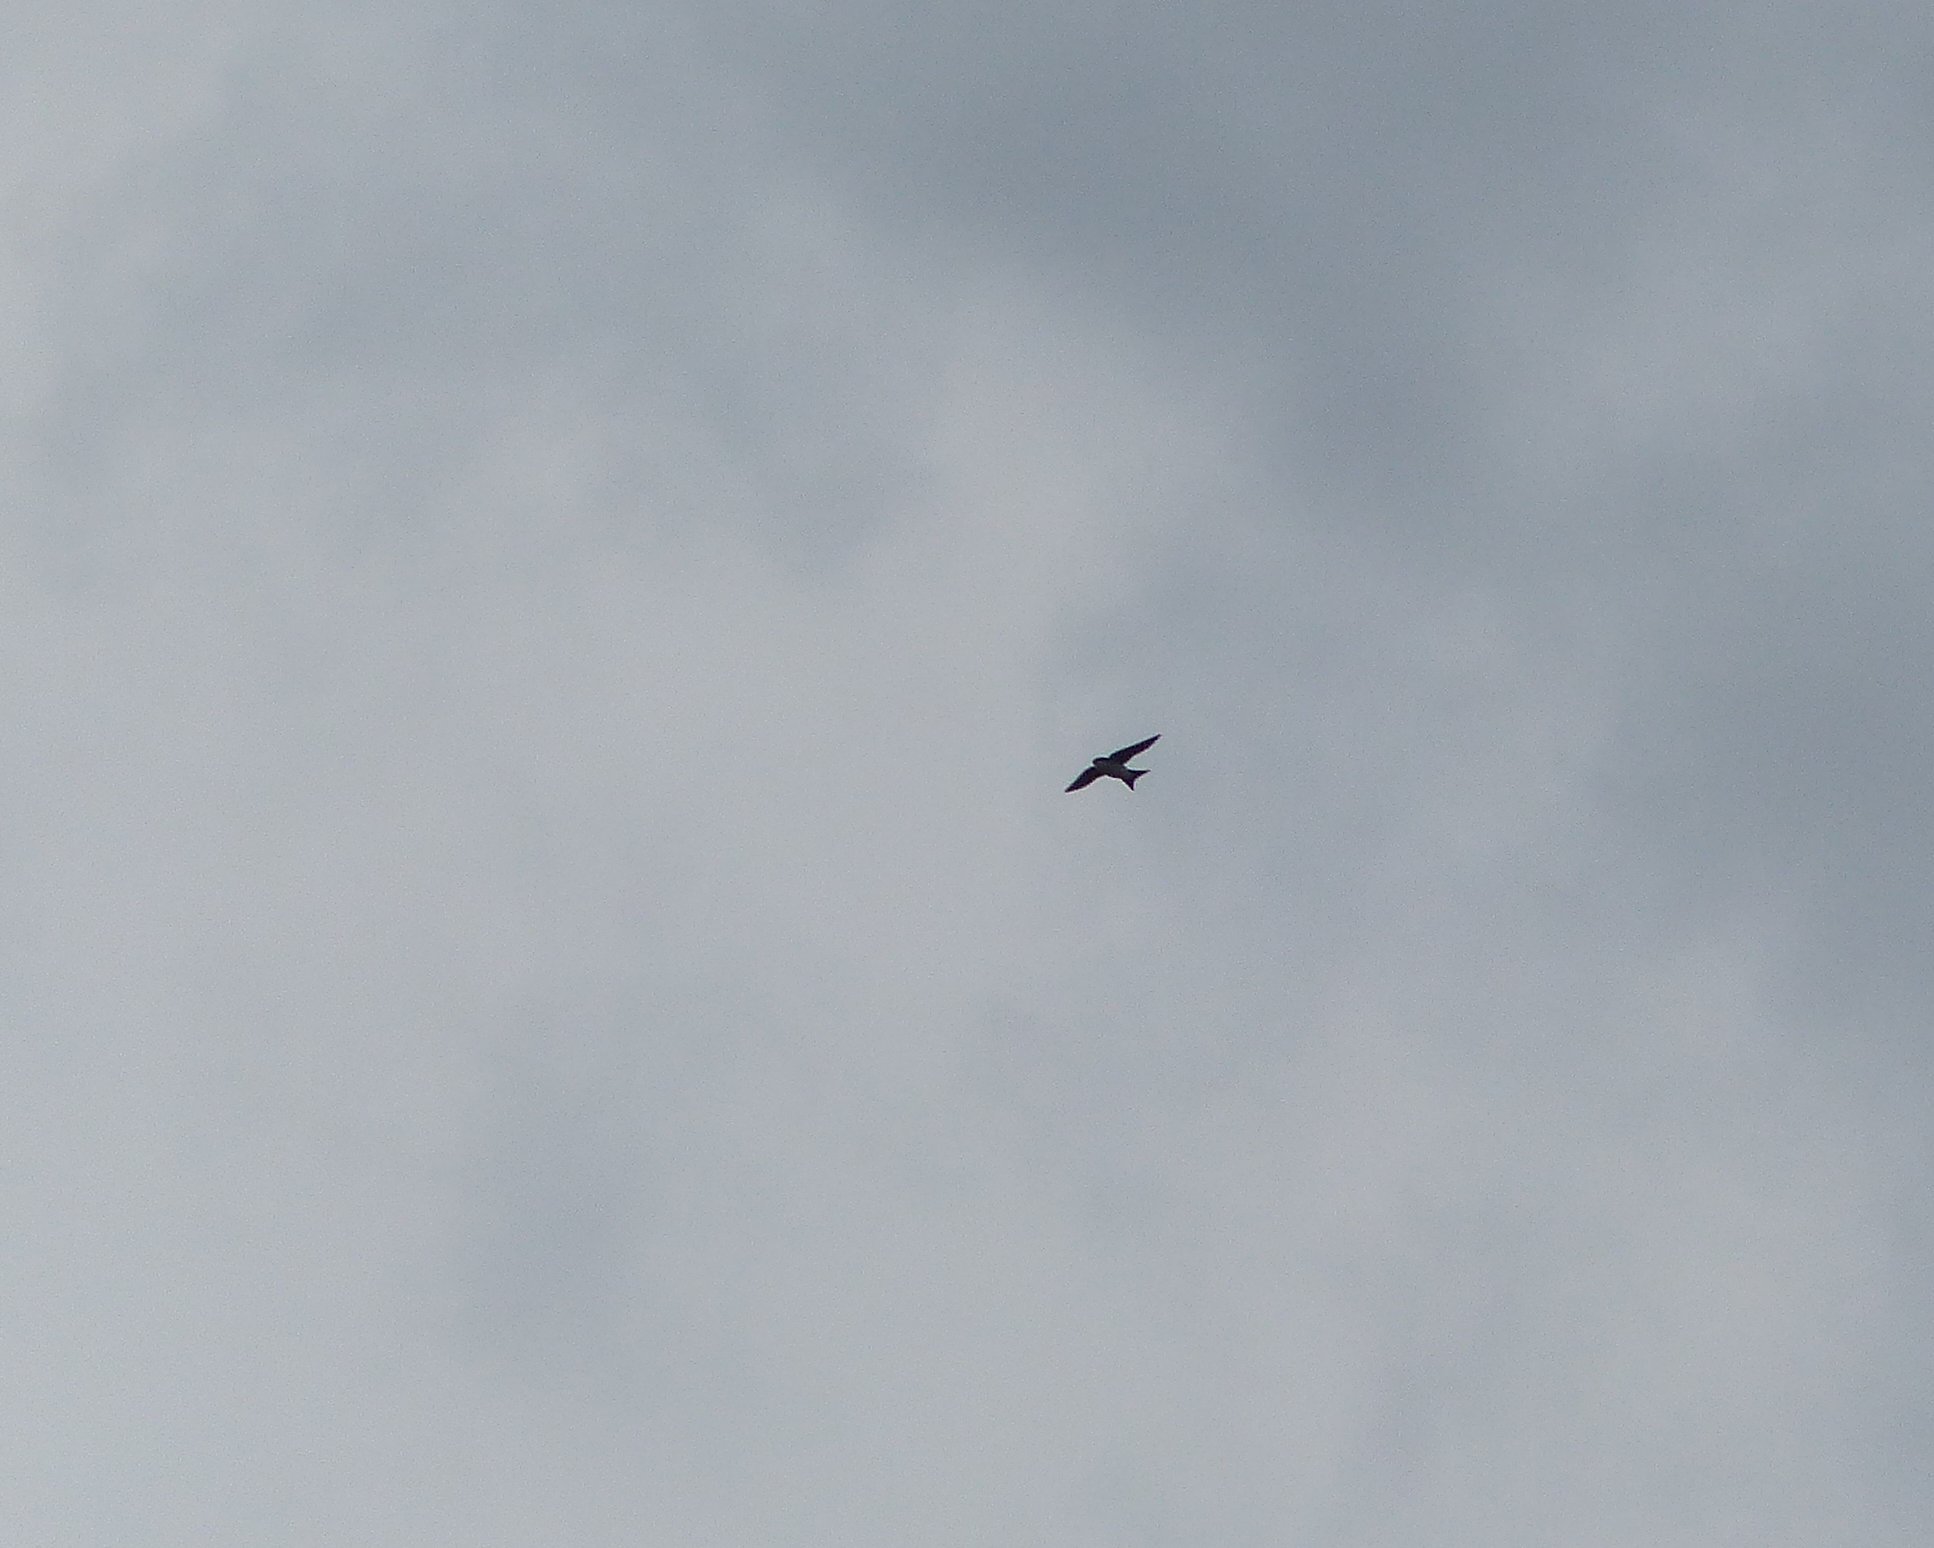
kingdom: Animalia
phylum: Chordata
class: Aves
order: Passeriformes
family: Hirundinidae
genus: Delichon
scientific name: Delichon urbicum
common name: Common house martin
